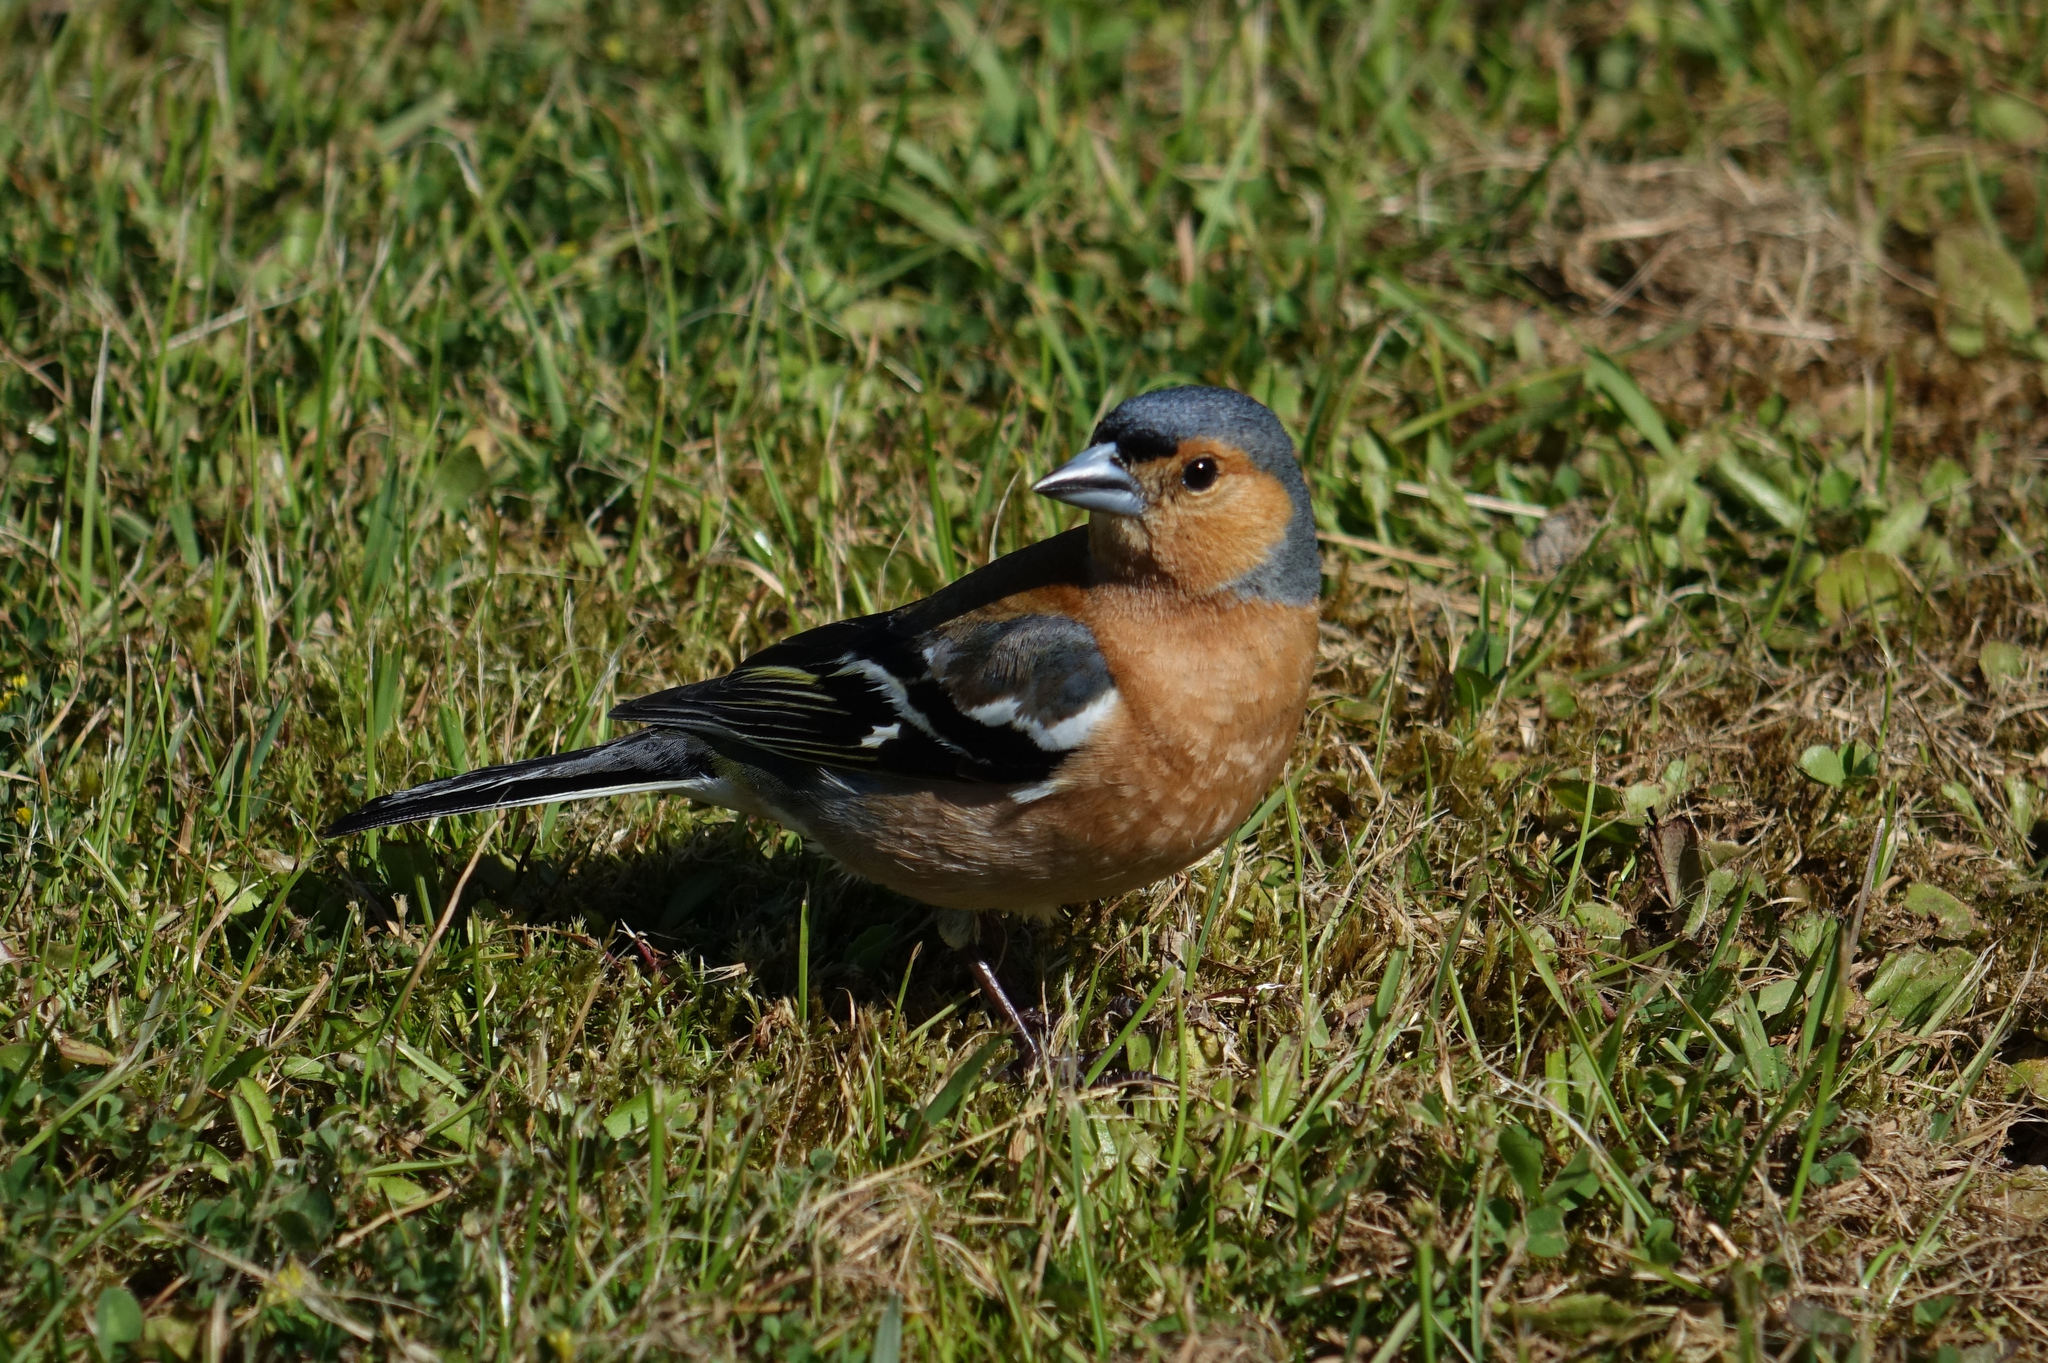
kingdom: Animalia
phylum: Chordata
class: Aves
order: Passeriformes
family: Fringillidae
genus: Fringilla
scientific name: Fringilla coelebs
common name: Common chaffinch
